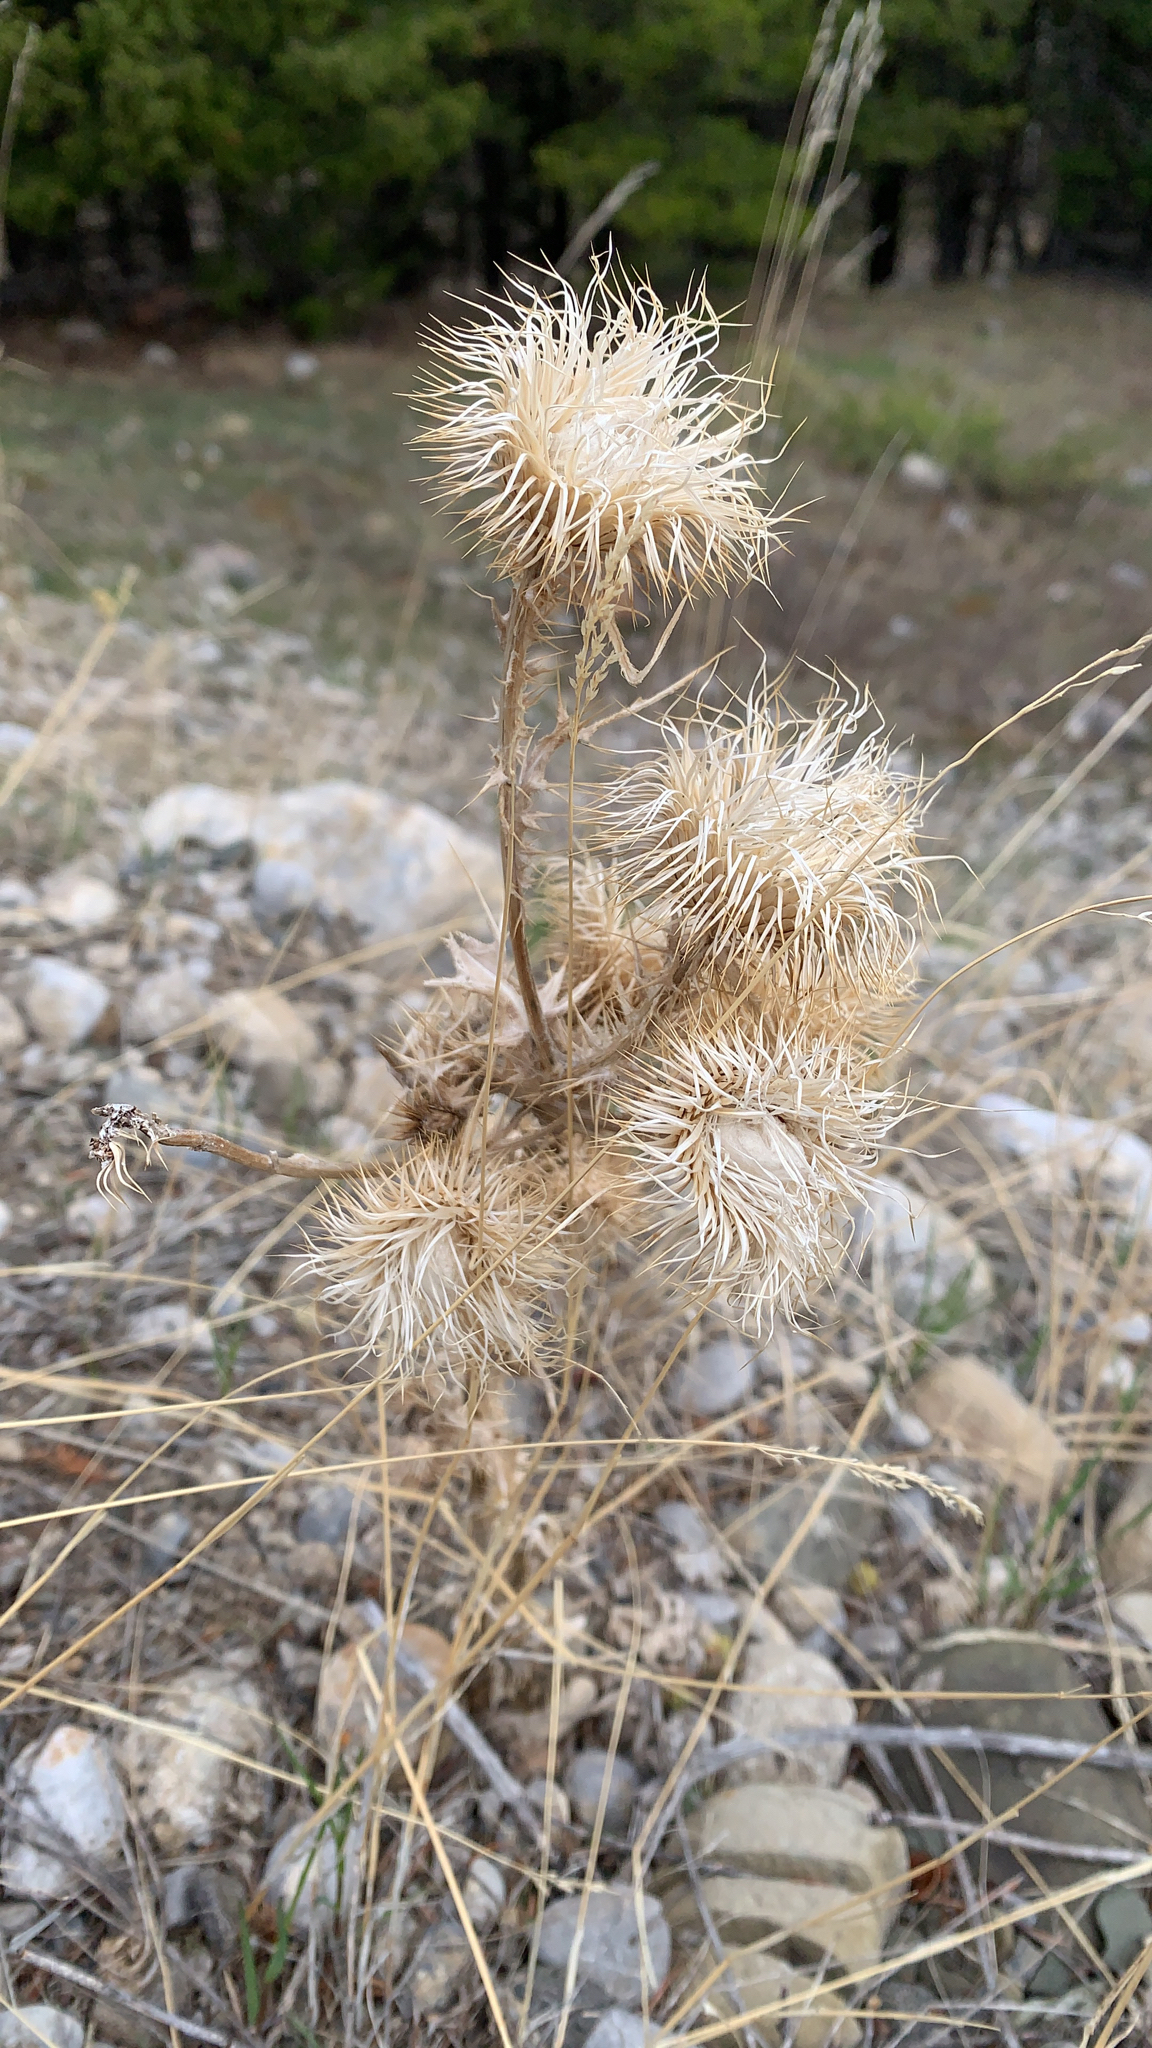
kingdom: Plantae
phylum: Tracheophyta
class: Magnoliopsida
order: Asterales
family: Asteraceae
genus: Cirsium
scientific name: Cirsium vulgare
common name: Bull thistle
